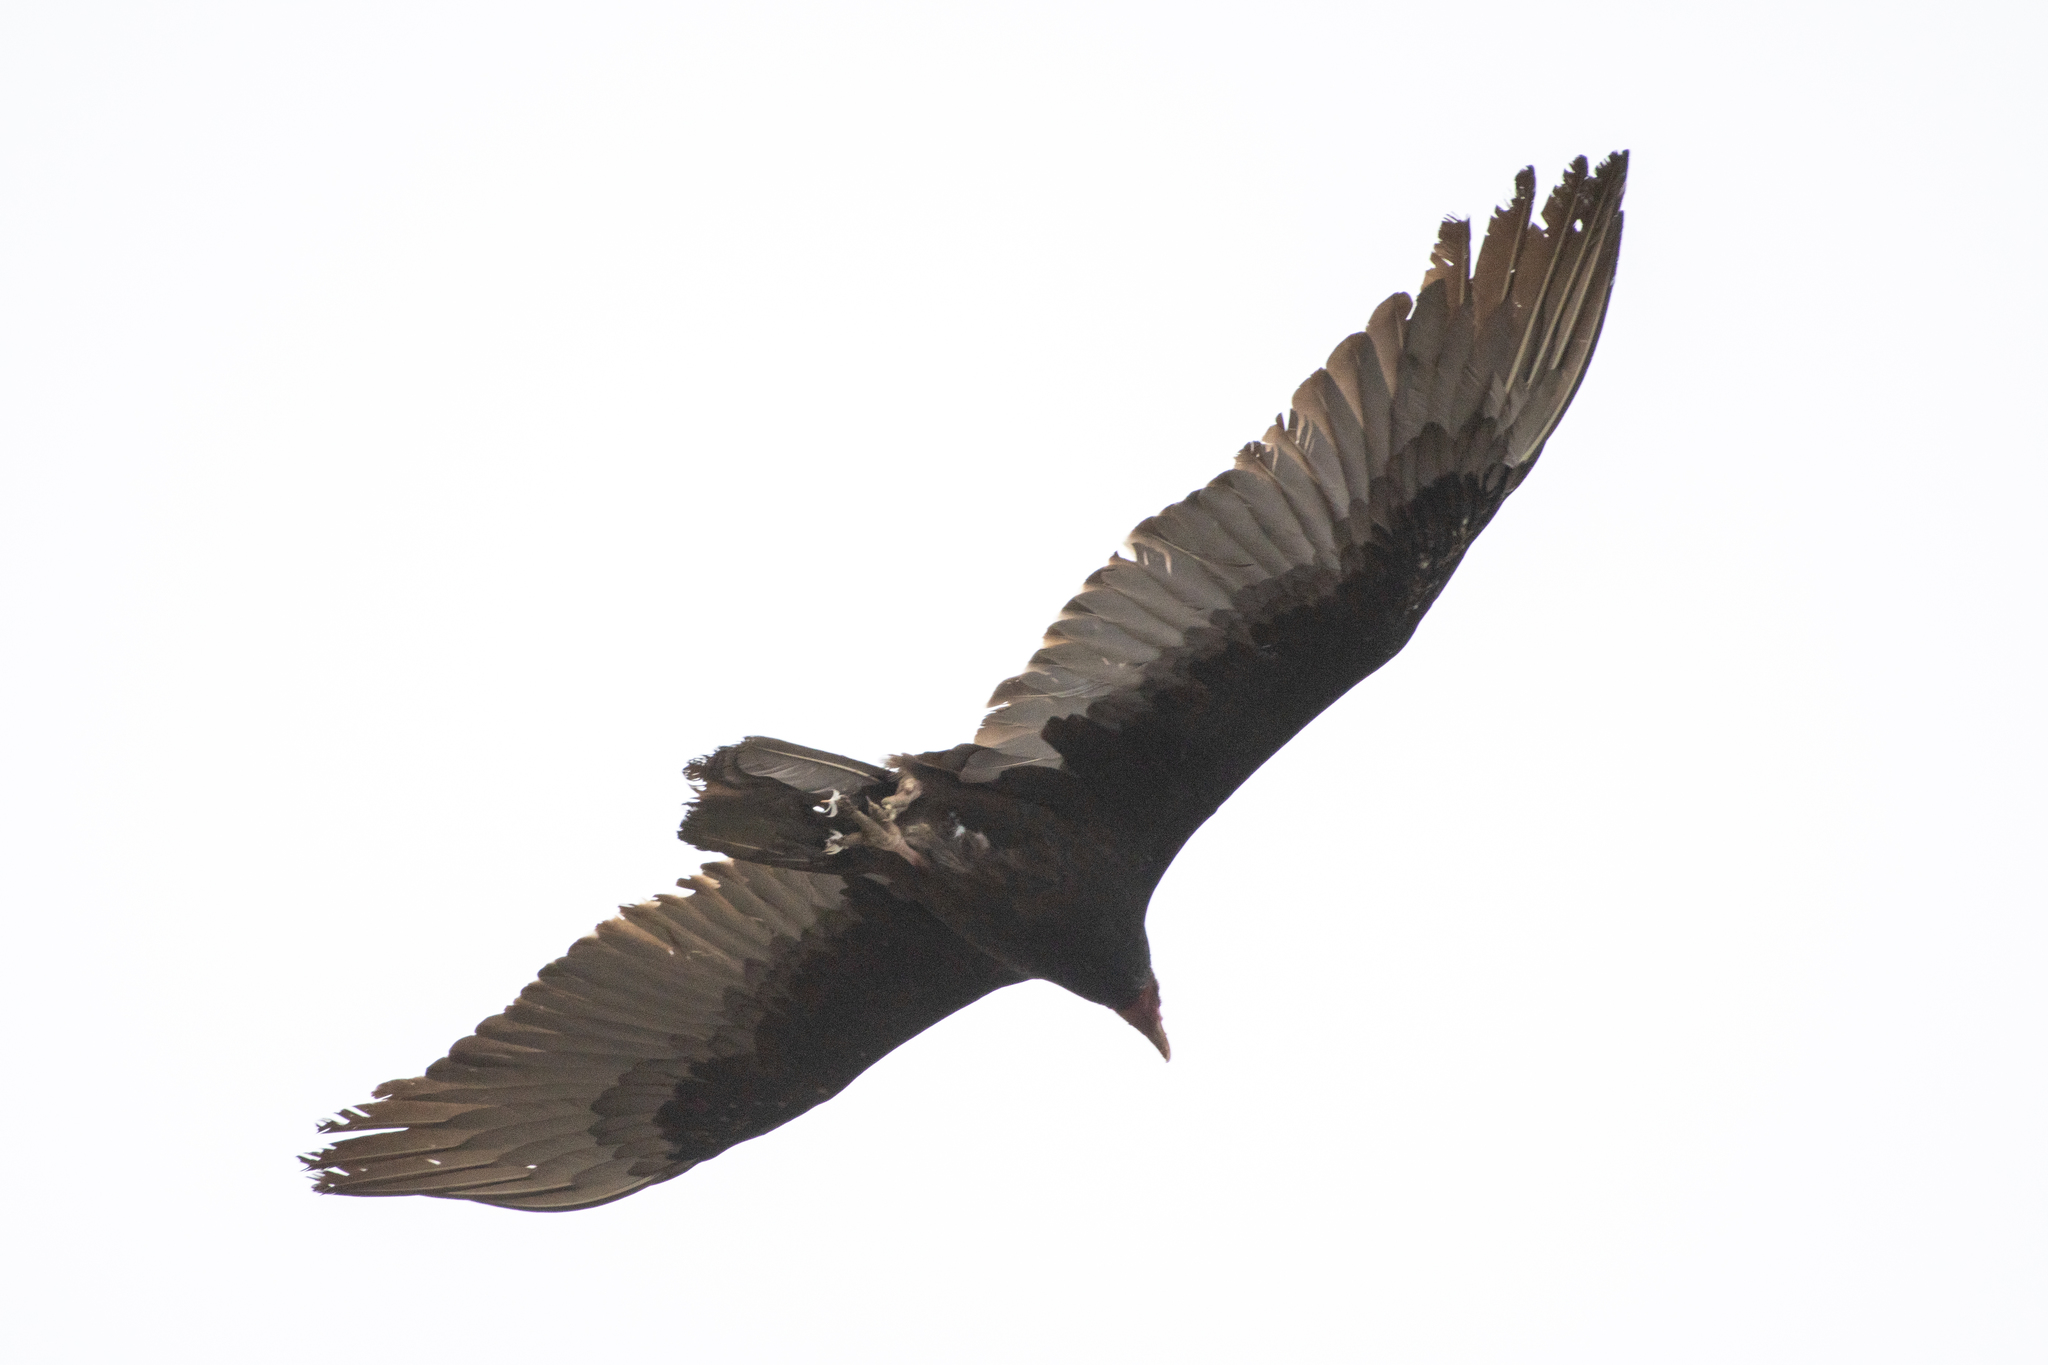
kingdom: Animalia
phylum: Chordata
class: Aves
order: Accipitriformes
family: Cathartidae
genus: Cathartes
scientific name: Cathartes aura
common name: Turkey vulture
